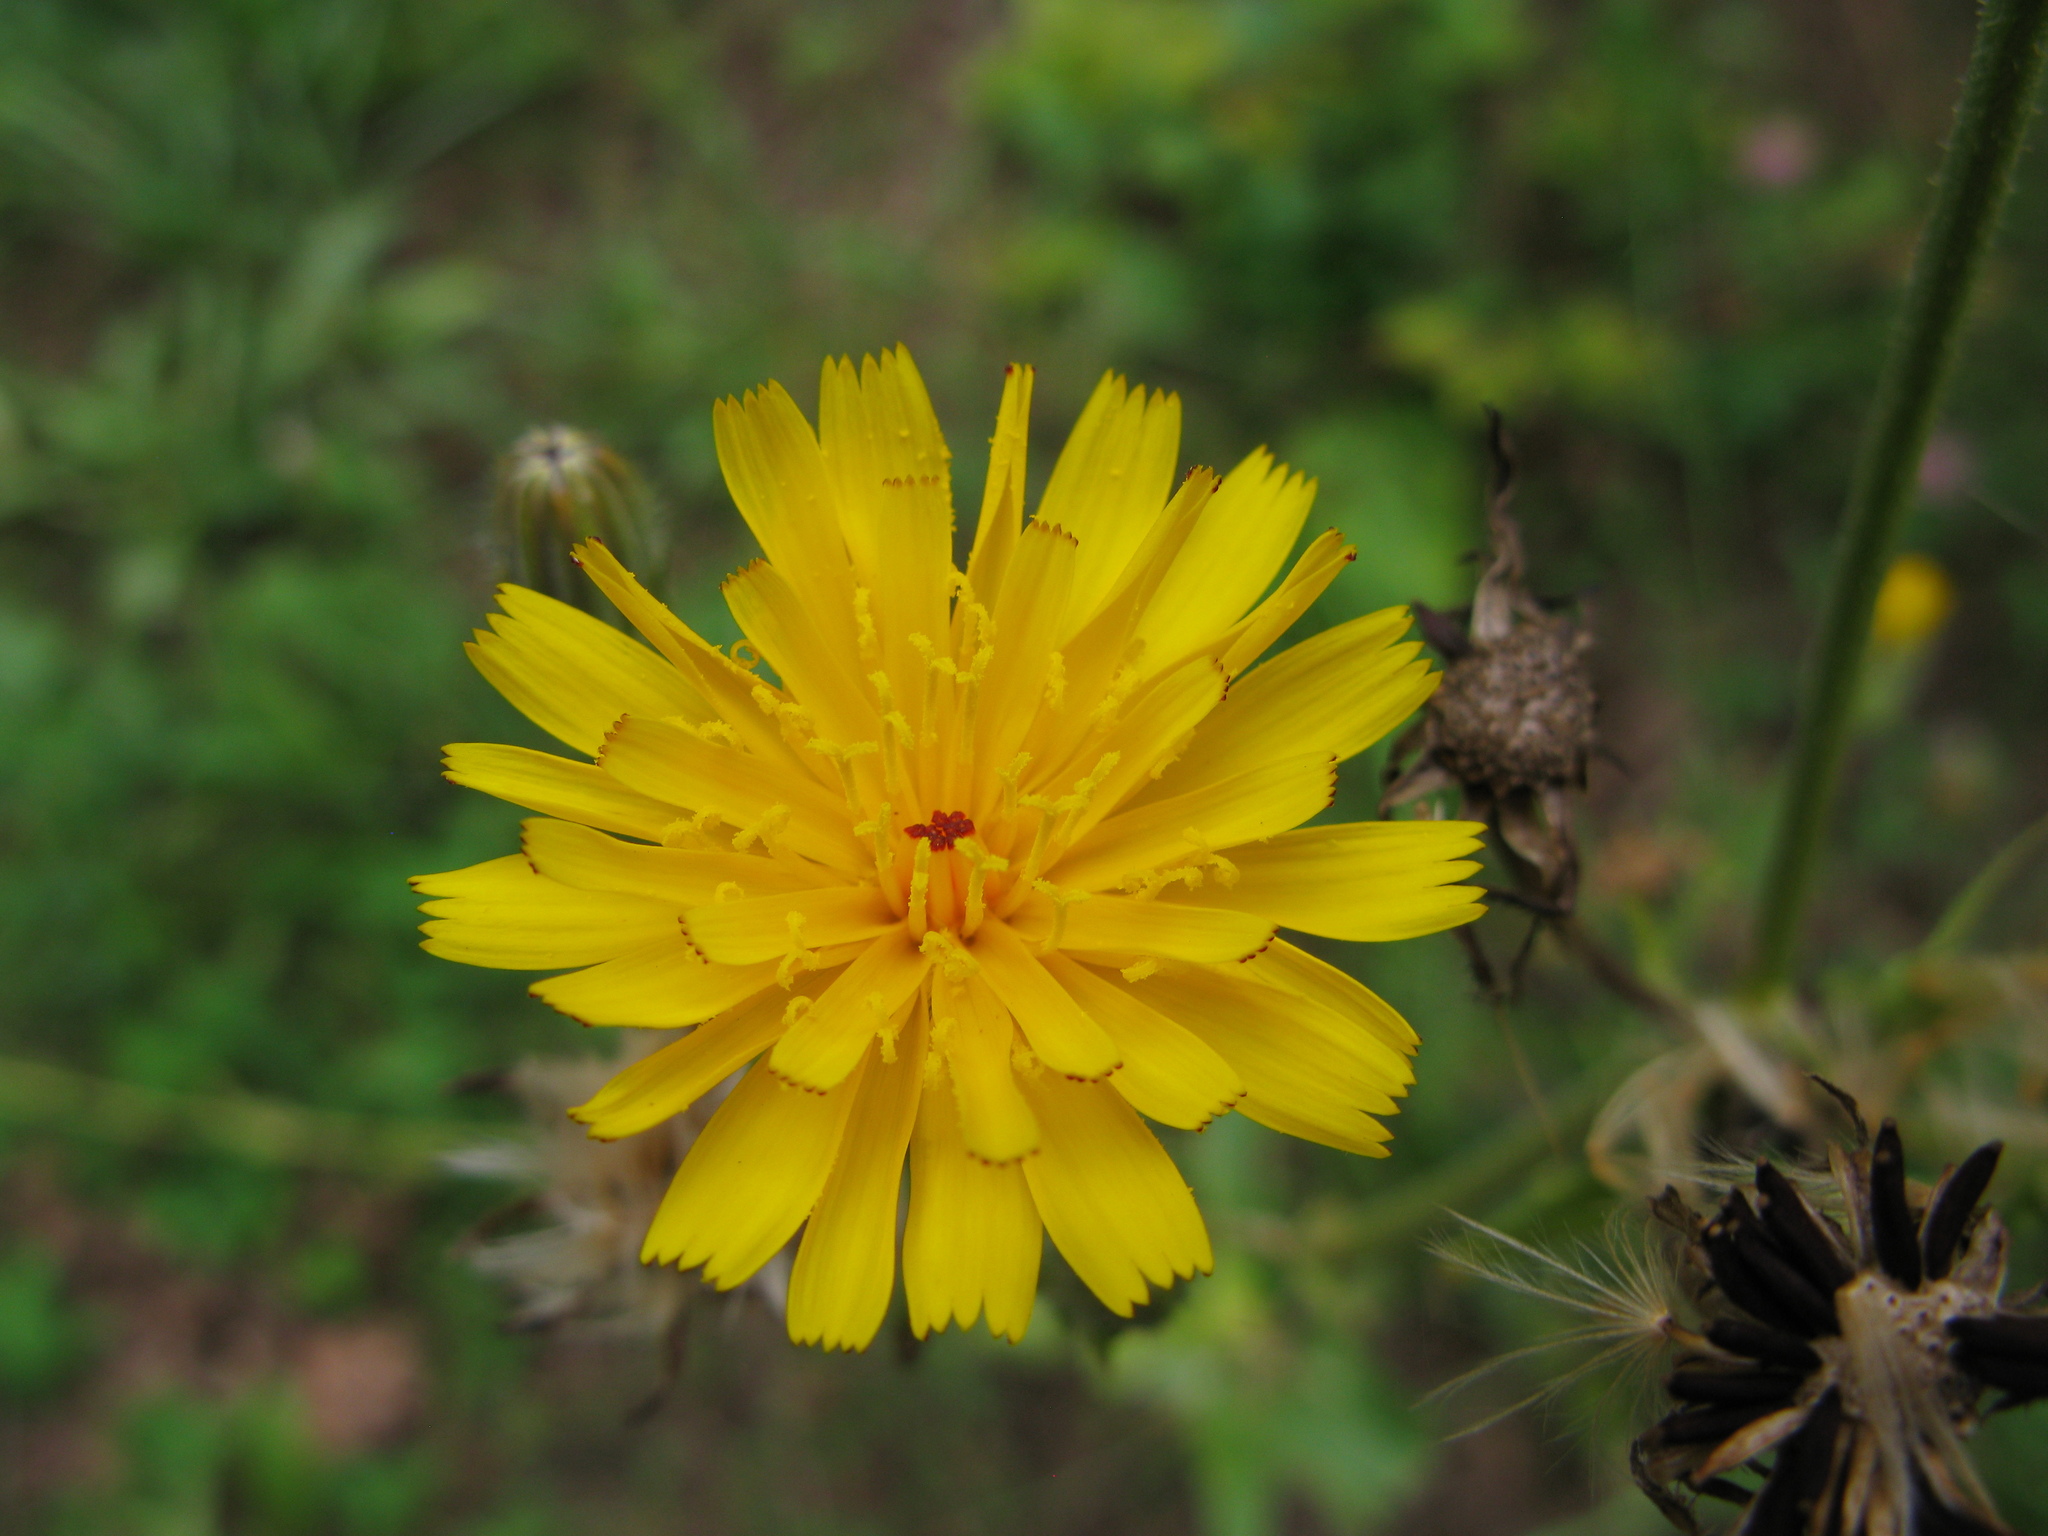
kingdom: Plantae
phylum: Tracheophyta
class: Magnoliopsida
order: Asterales
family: Asteraceae
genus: Picris
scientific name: Picris hieracioides
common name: Hawkweed oxtongue
